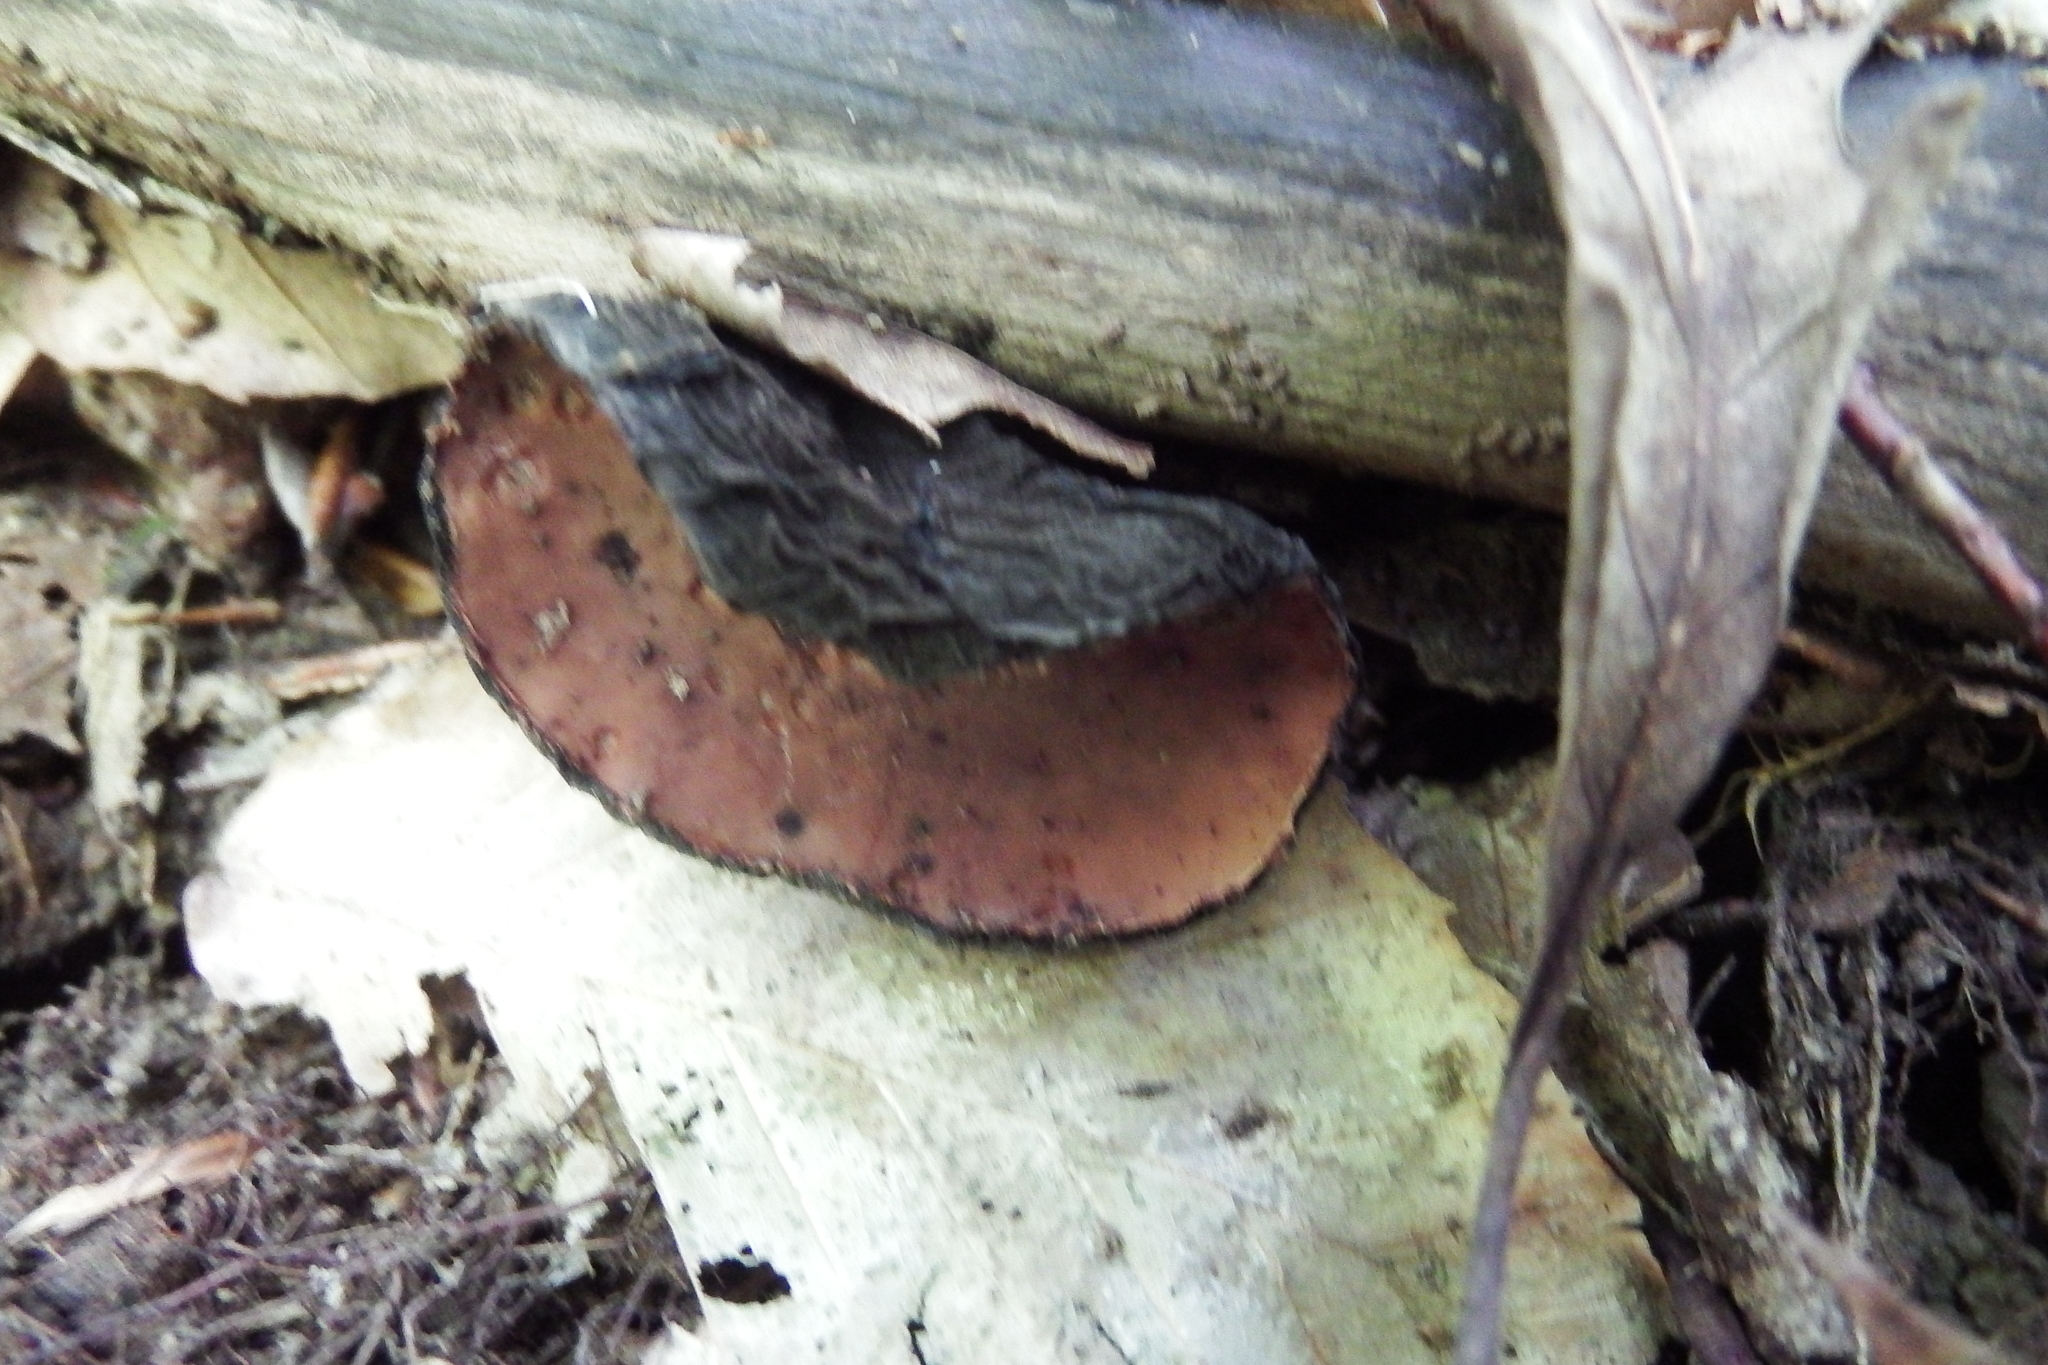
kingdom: Fungi
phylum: Ascomycota
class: Pezizomycetes
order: Pezizales
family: Sarcosomataceae
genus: Galiella
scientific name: Galiella rufa
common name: Hairy rubber cup
